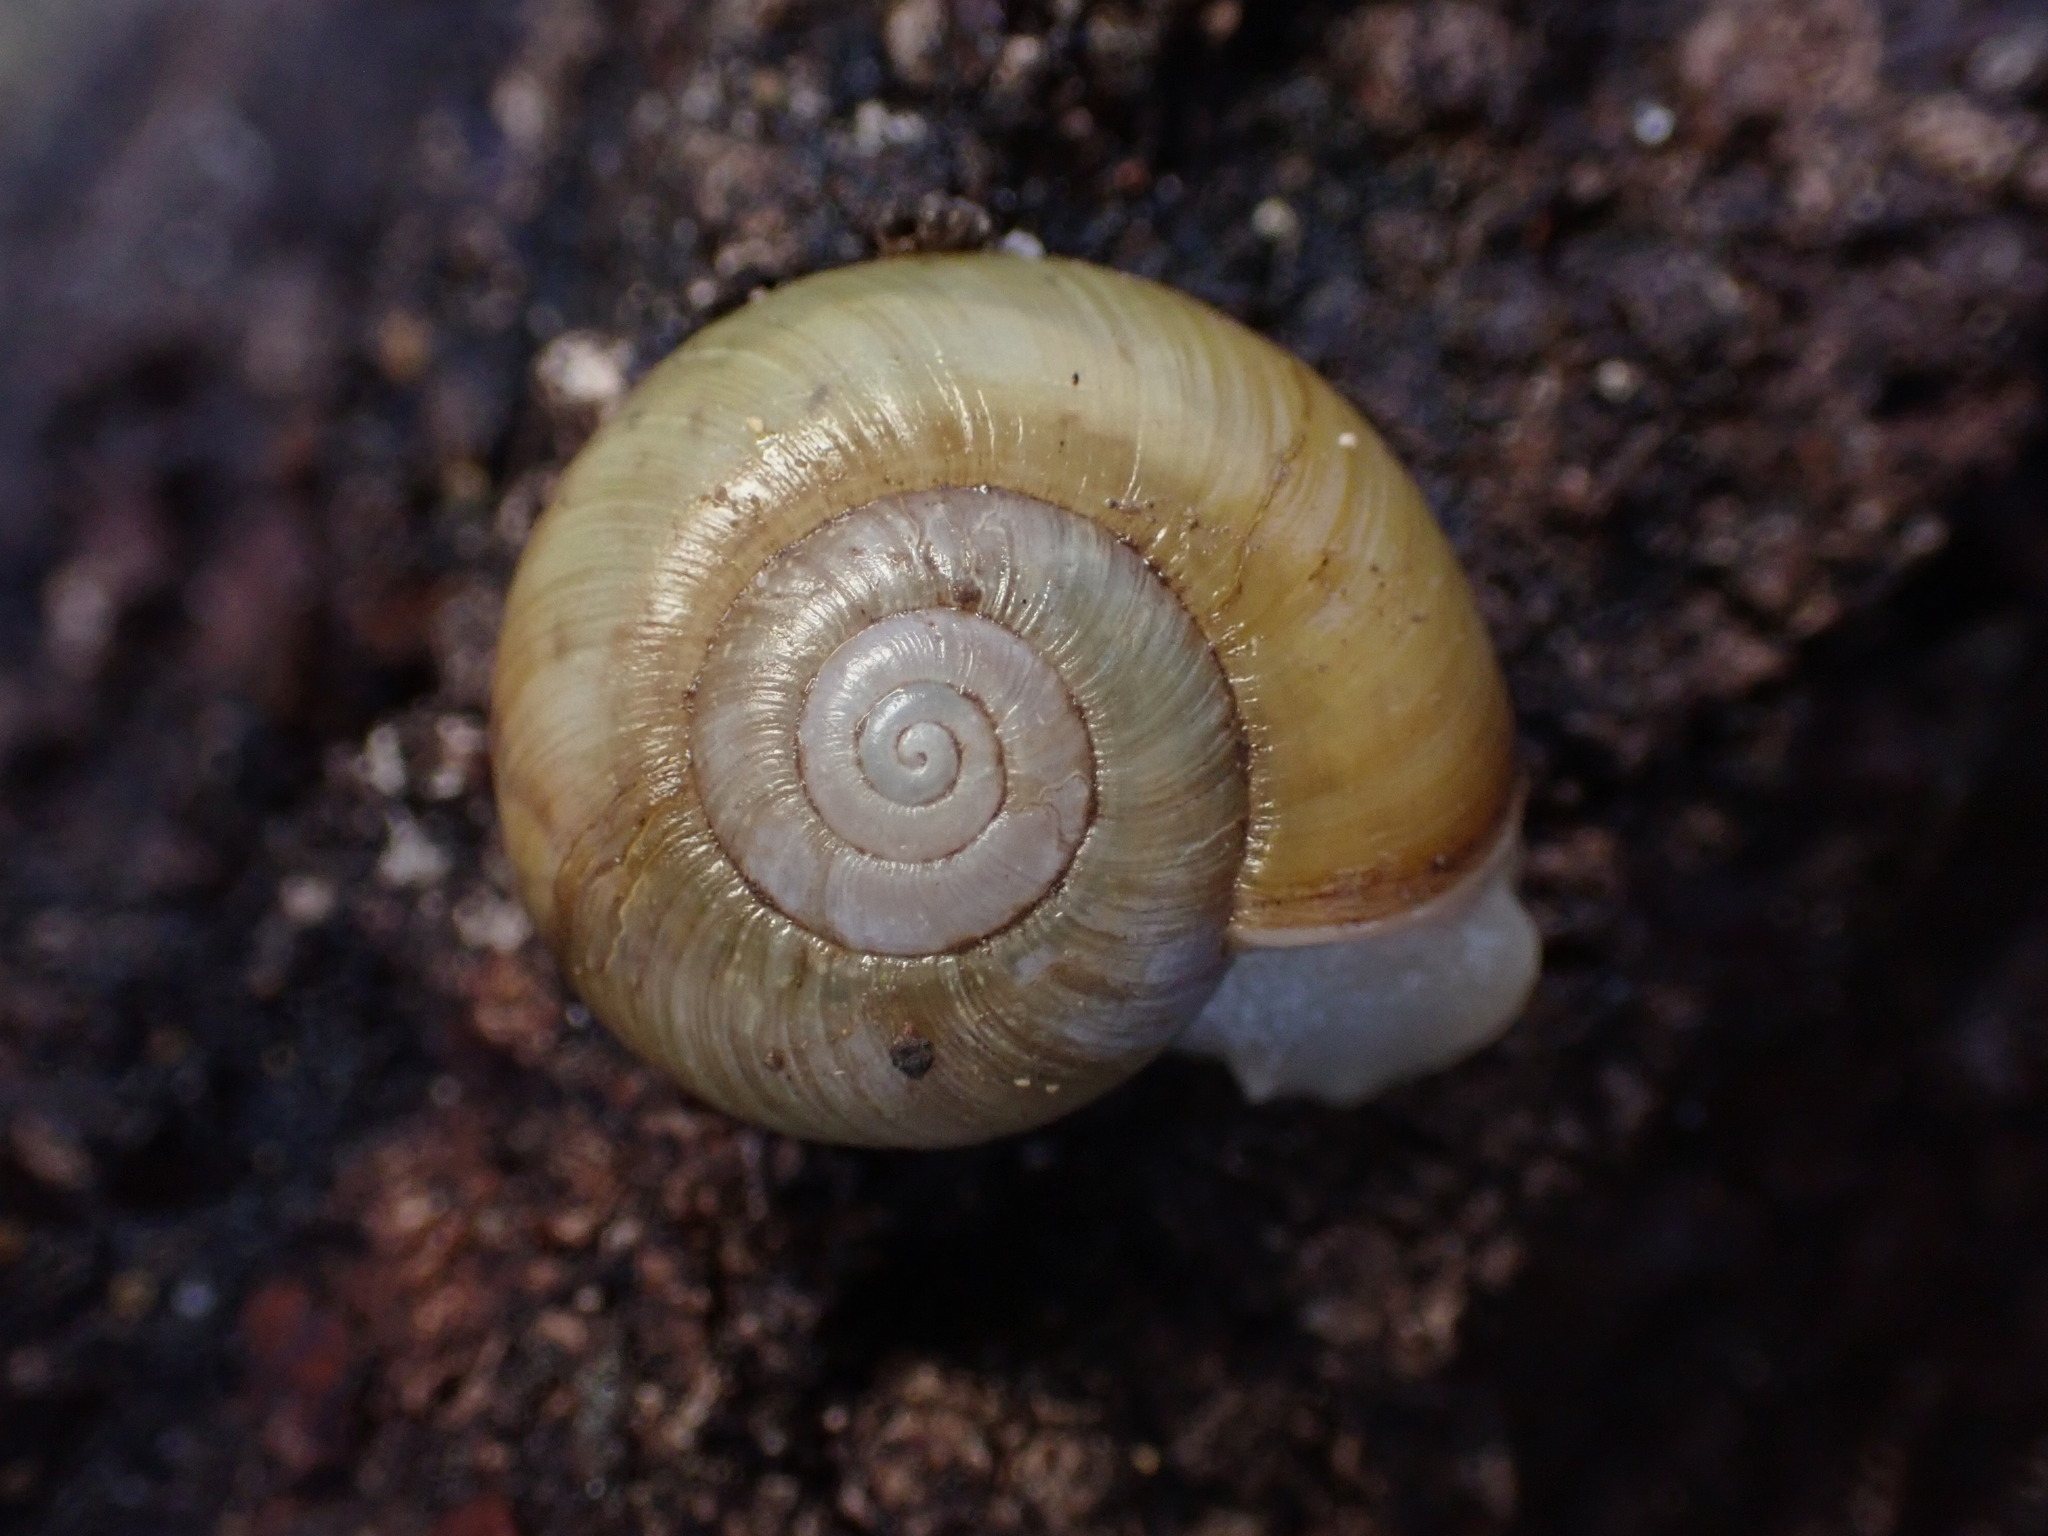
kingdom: Animalia
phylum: Mollusca
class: Gastropoda
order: Stylommatophora
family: Haplotrematidae
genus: Haplotrema
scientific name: Haplotrema minimum
